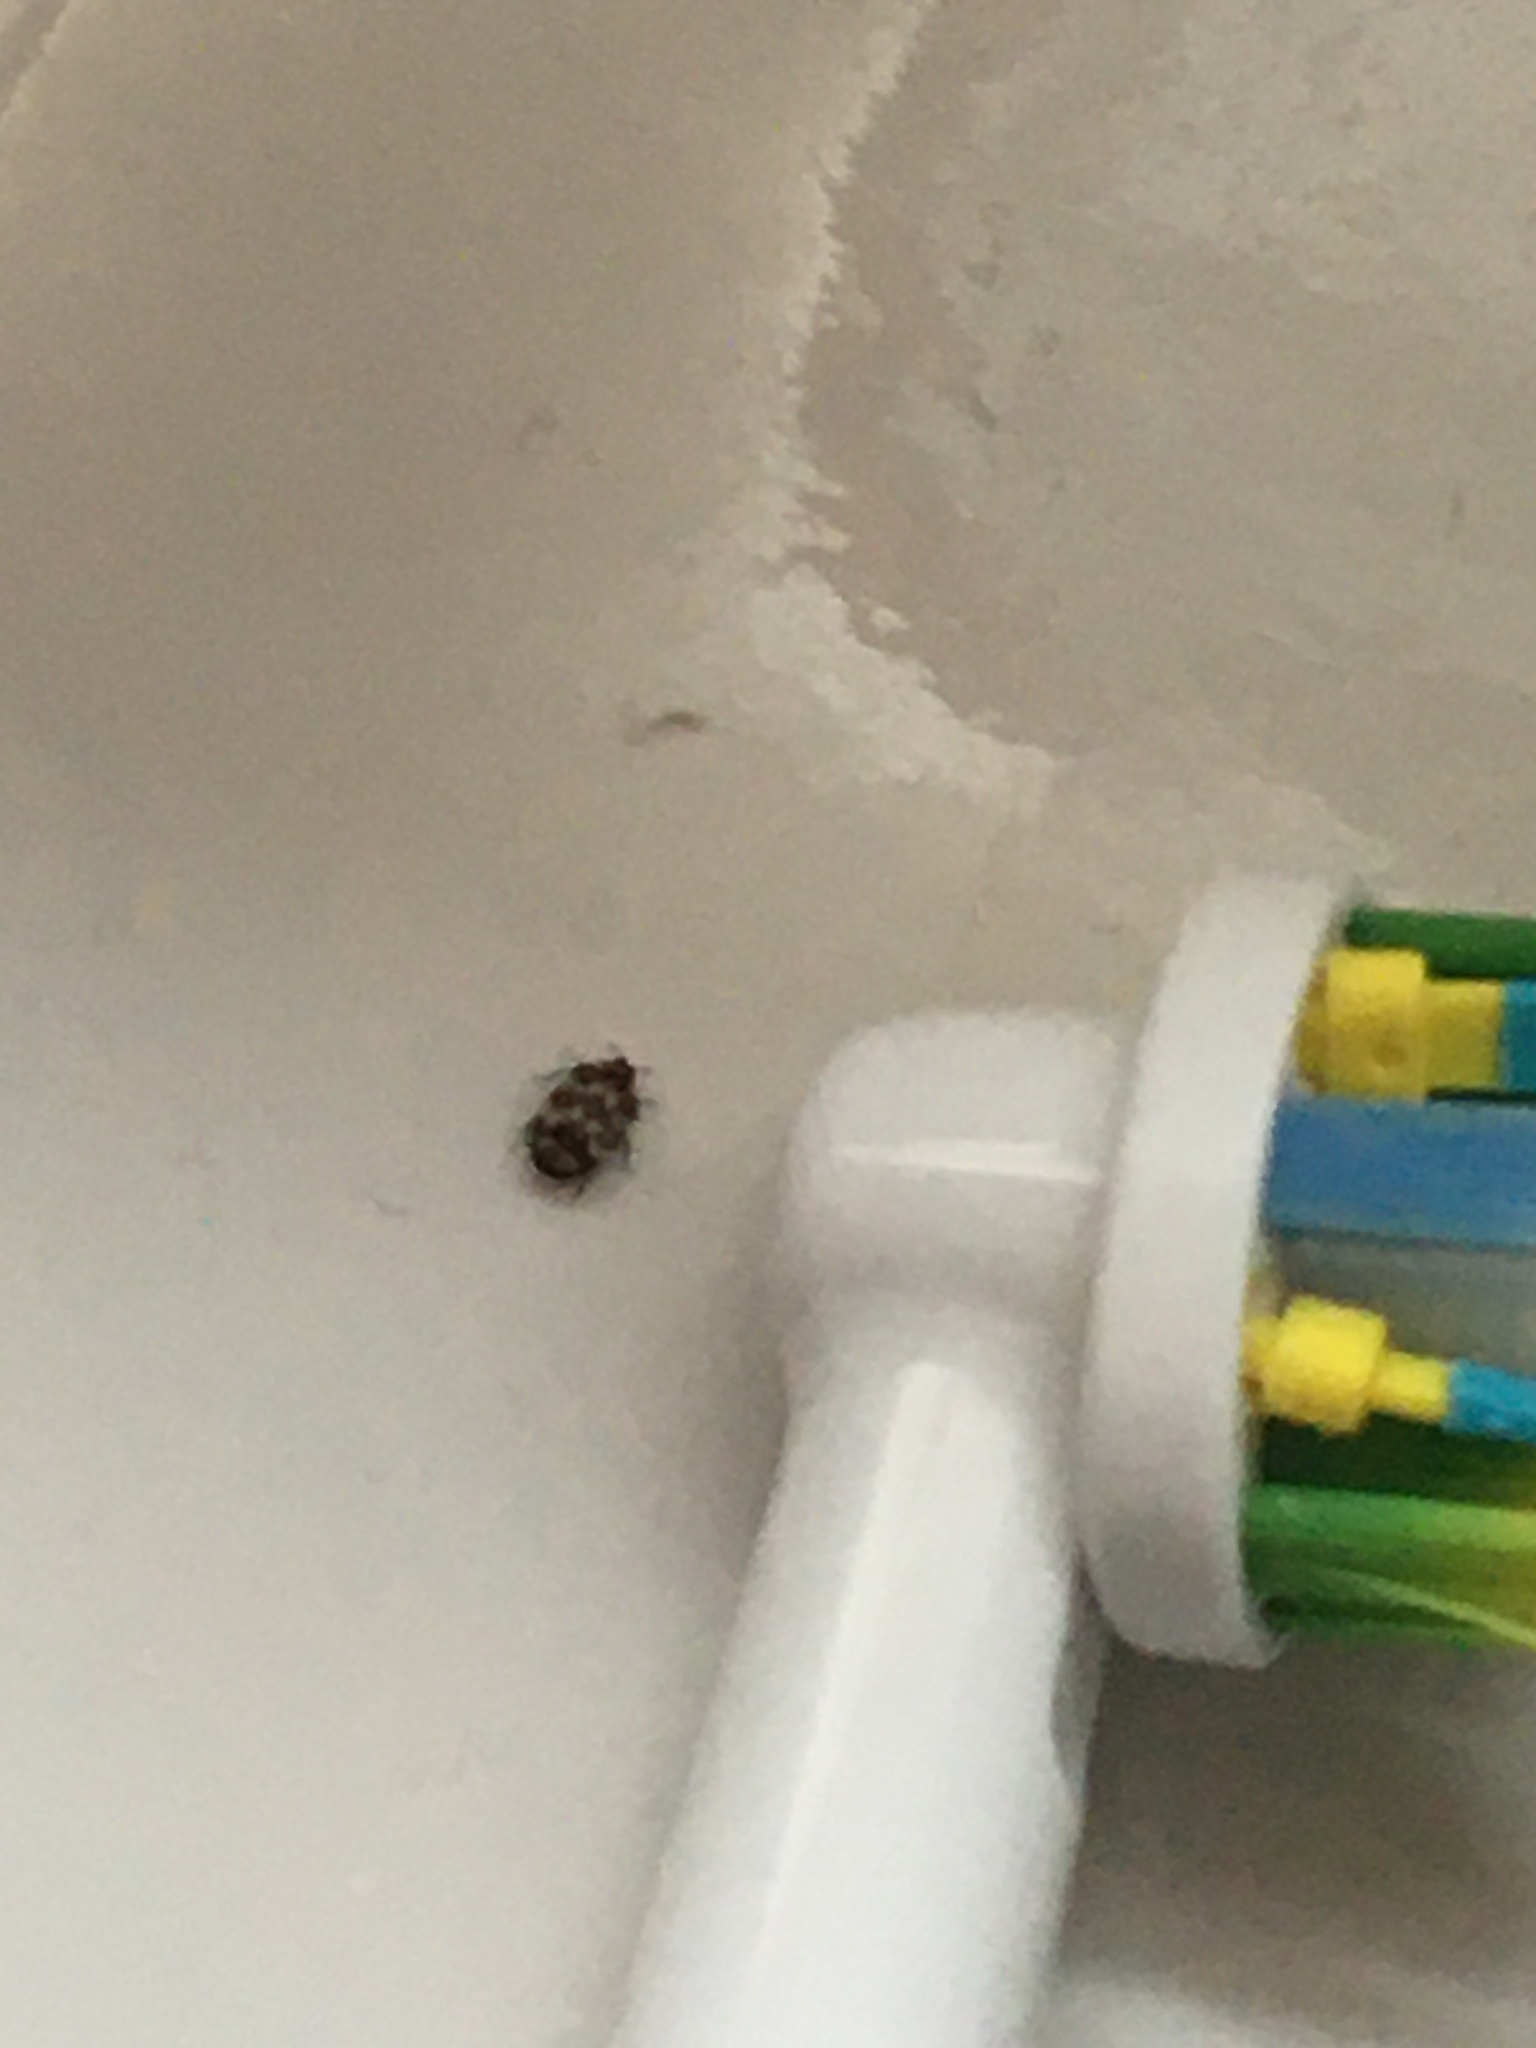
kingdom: Animalia
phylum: Arthropoda
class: Insecta
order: Coleoptera
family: Dermestidae
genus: Anthrenus
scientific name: Anthrenus verbasci
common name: Varied carpet beetle
